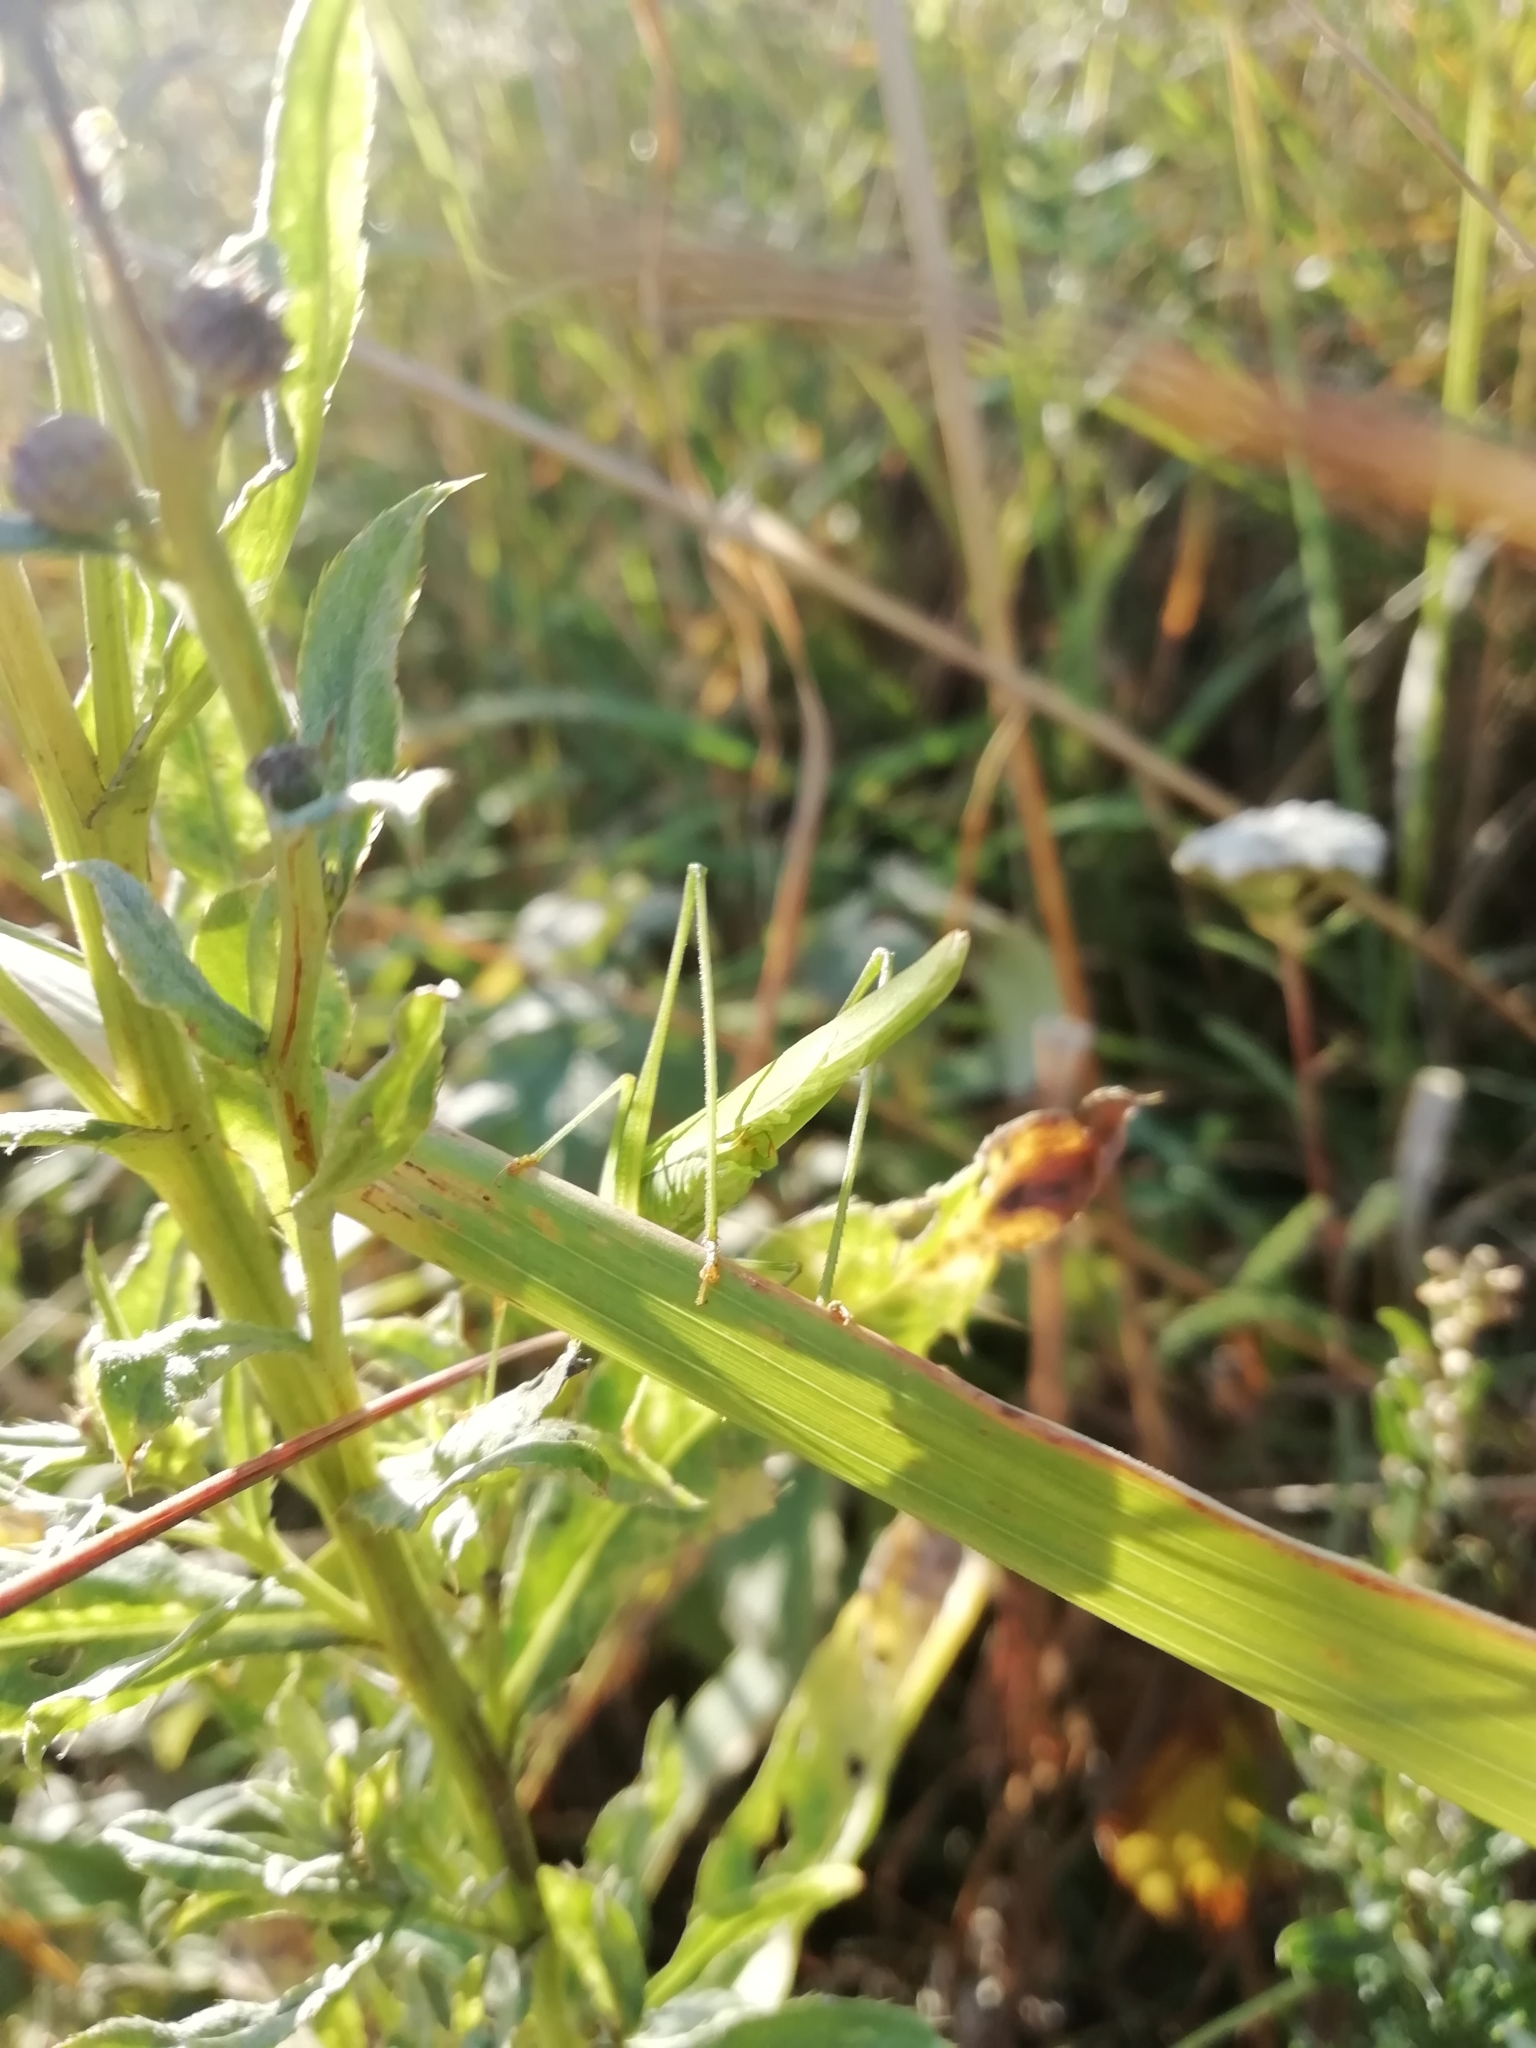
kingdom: Animalia
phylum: Arthropoda
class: Insecta
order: Orthoptera
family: Tettigoniidae
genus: Phaneroptera
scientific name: Phaneroptera falcata
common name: Sickle-bearing bush-cricket
